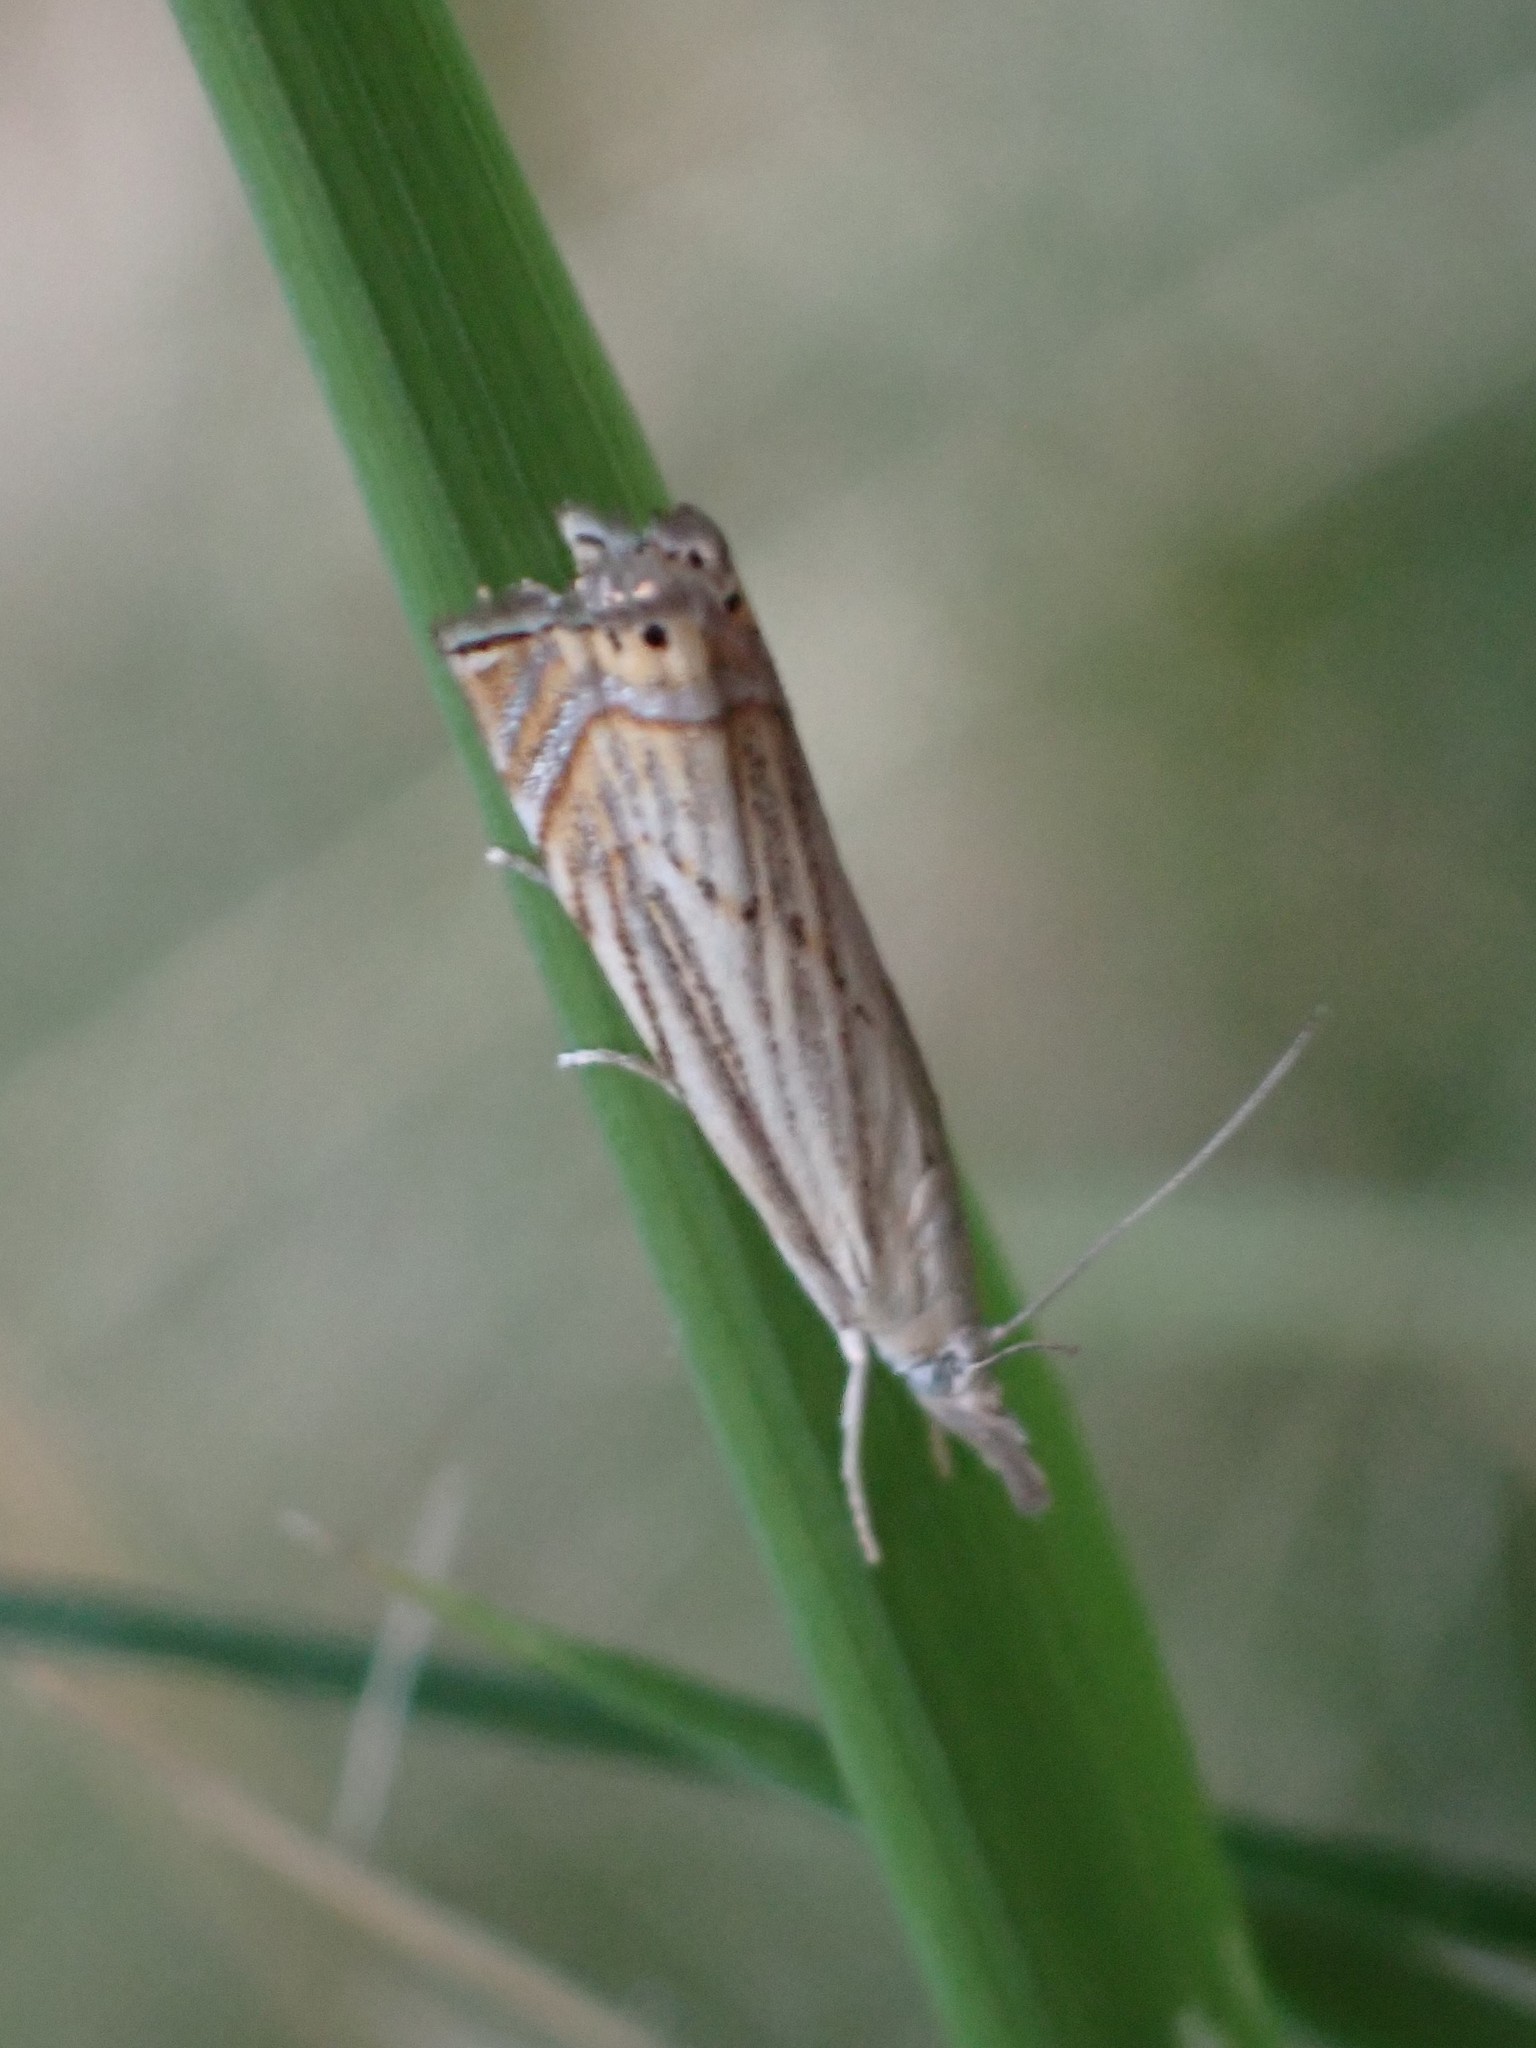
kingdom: Animalia
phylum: Arthropoda
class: Insecta
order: Lepidoptera
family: Crambidae
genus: Chrysoteuchia
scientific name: Chrysoteuchia topiarius
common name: Topiary grass-veneer
